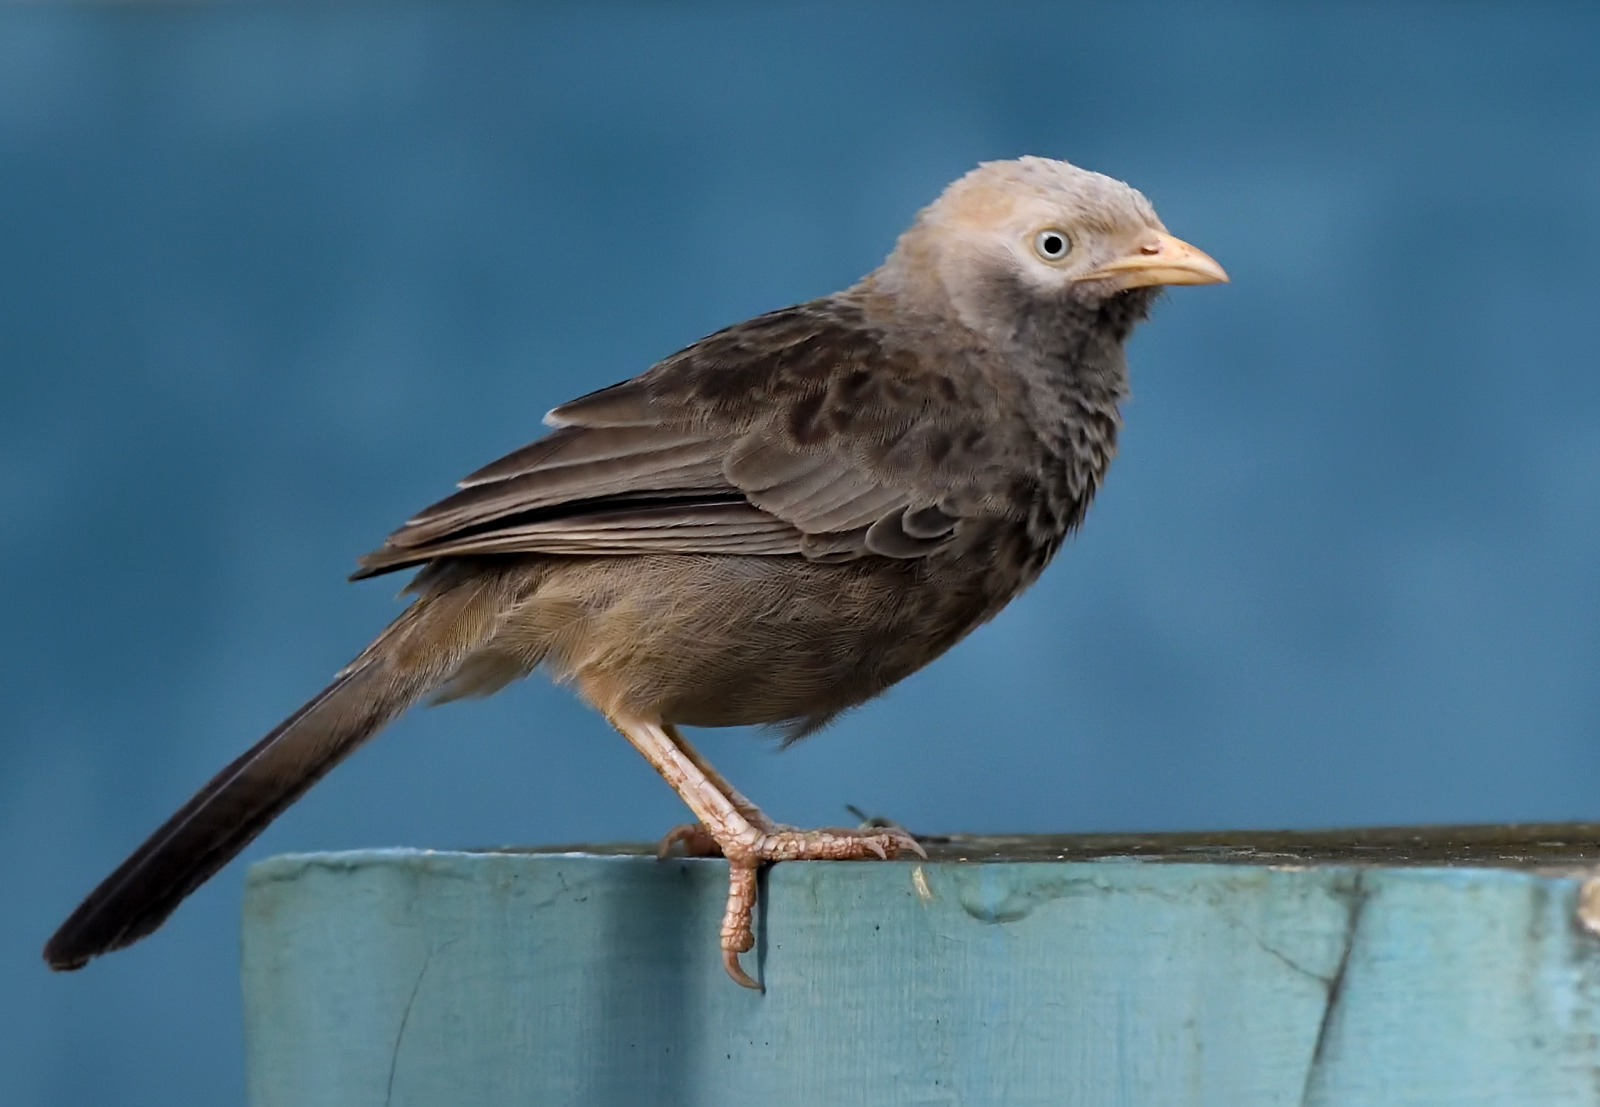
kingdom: Animalia
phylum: Chordata
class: Aves
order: Passeriformes
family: Leiothrichidae
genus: Turdoides
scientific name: Turdoides affinis
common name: Yellow-billed babbler
